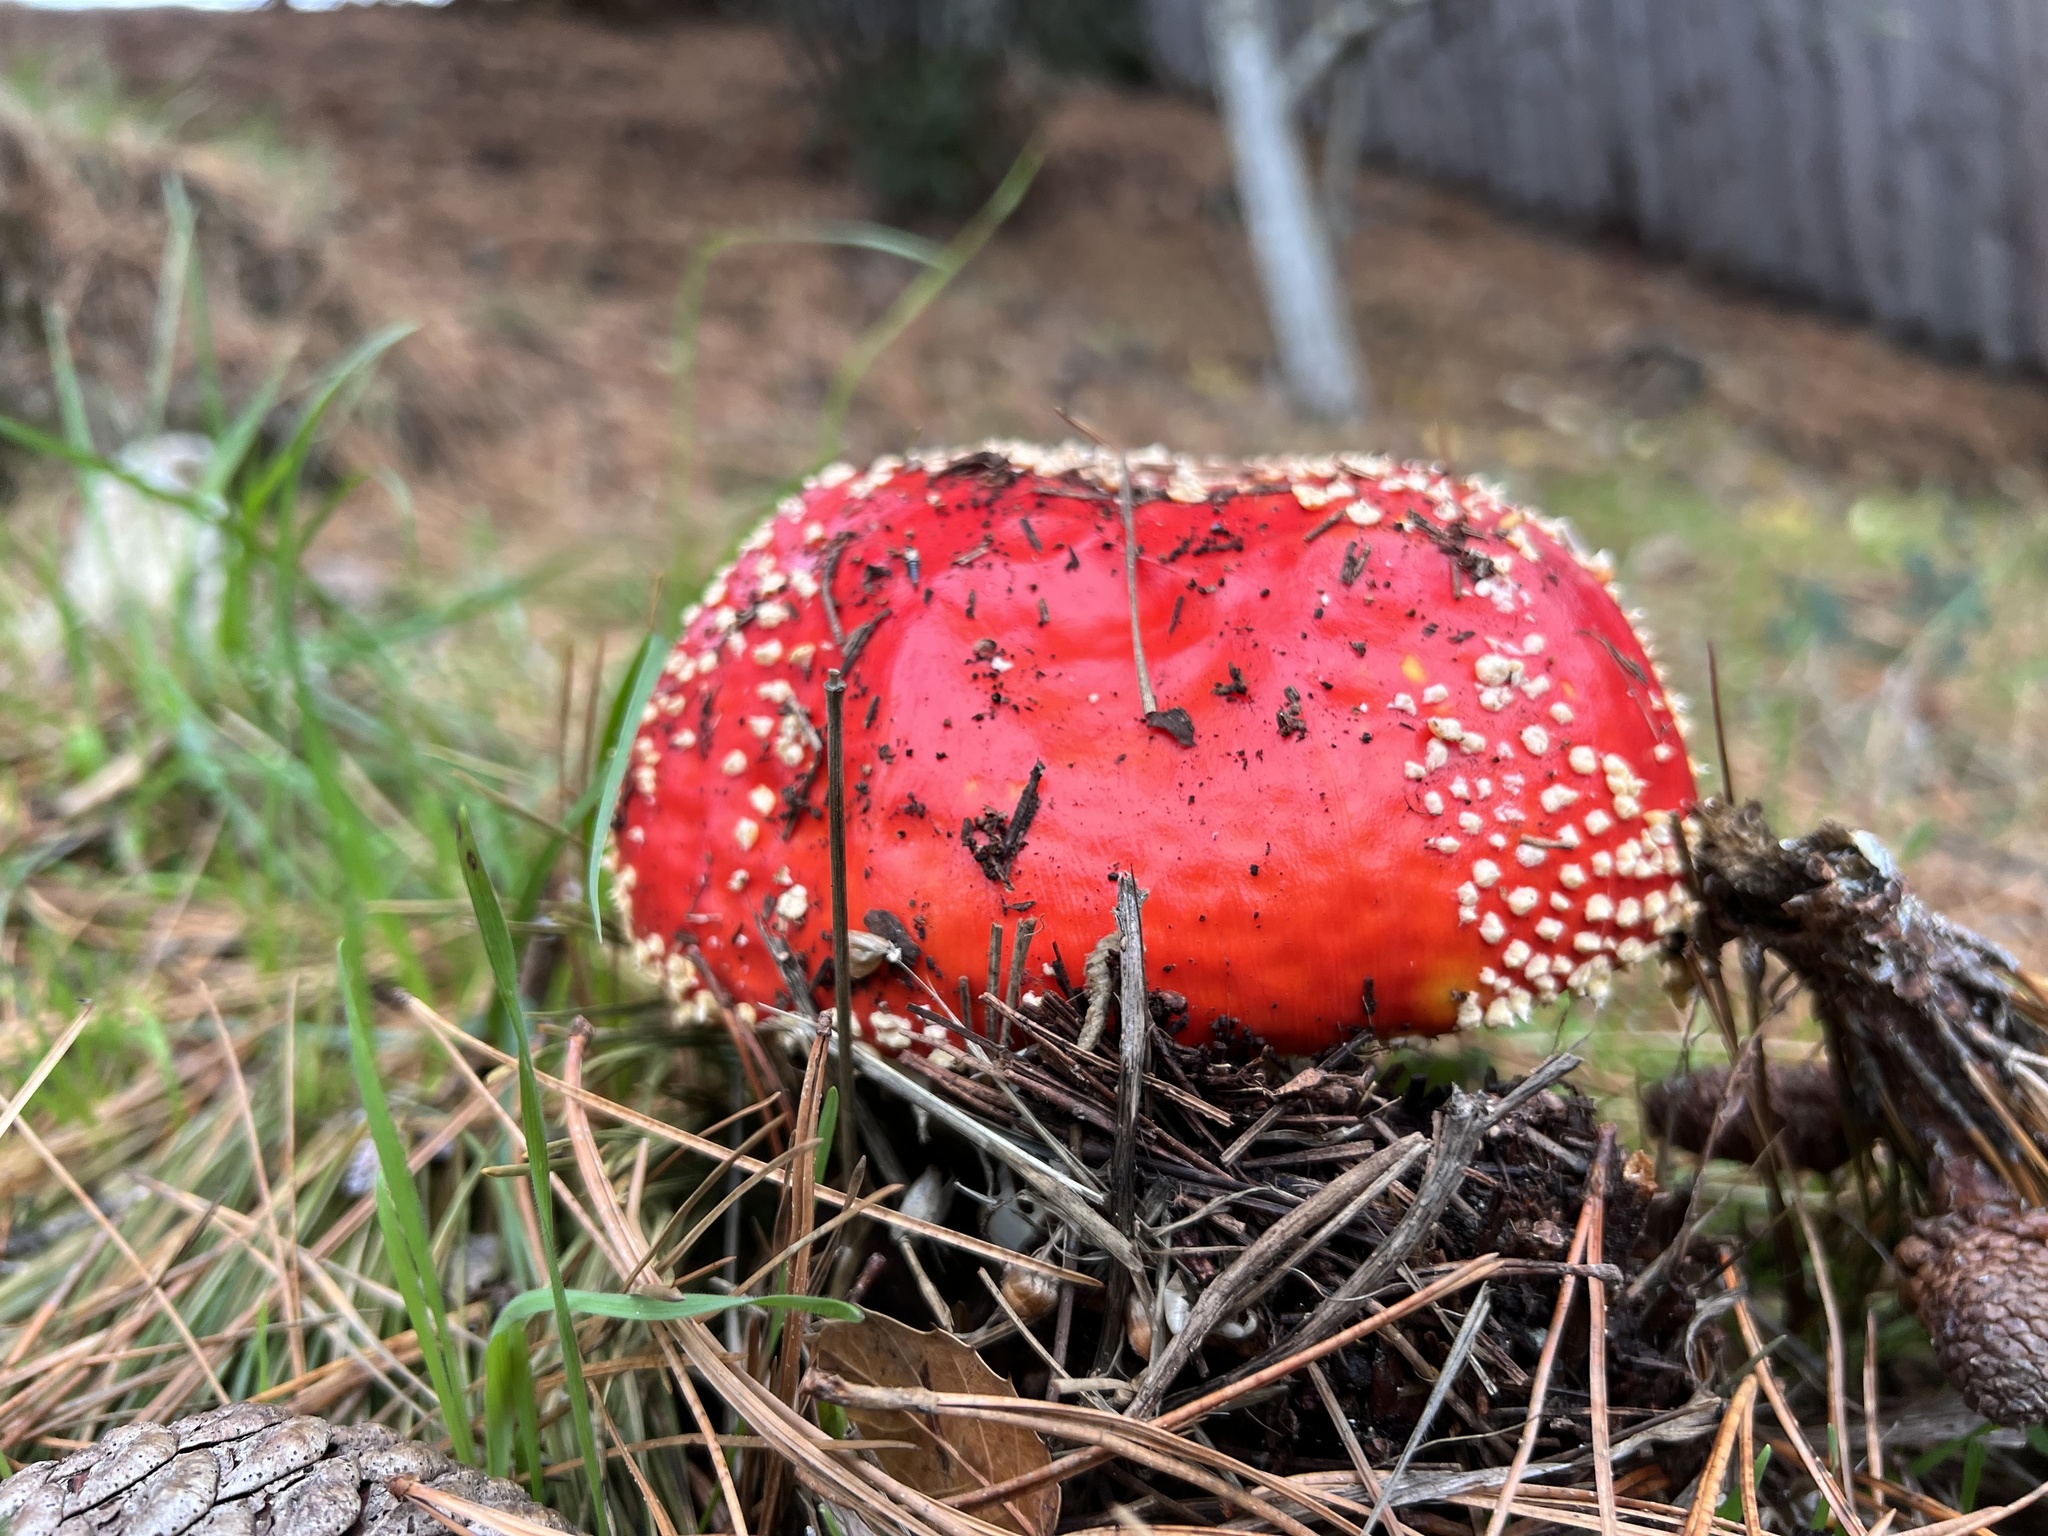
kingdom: Fungi
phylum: Basidiomycota
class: Agaricomycetes
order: Agaricales
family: Amanitaceae
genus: Amanita
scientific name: Amanita muscaria
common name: Fly agaric
